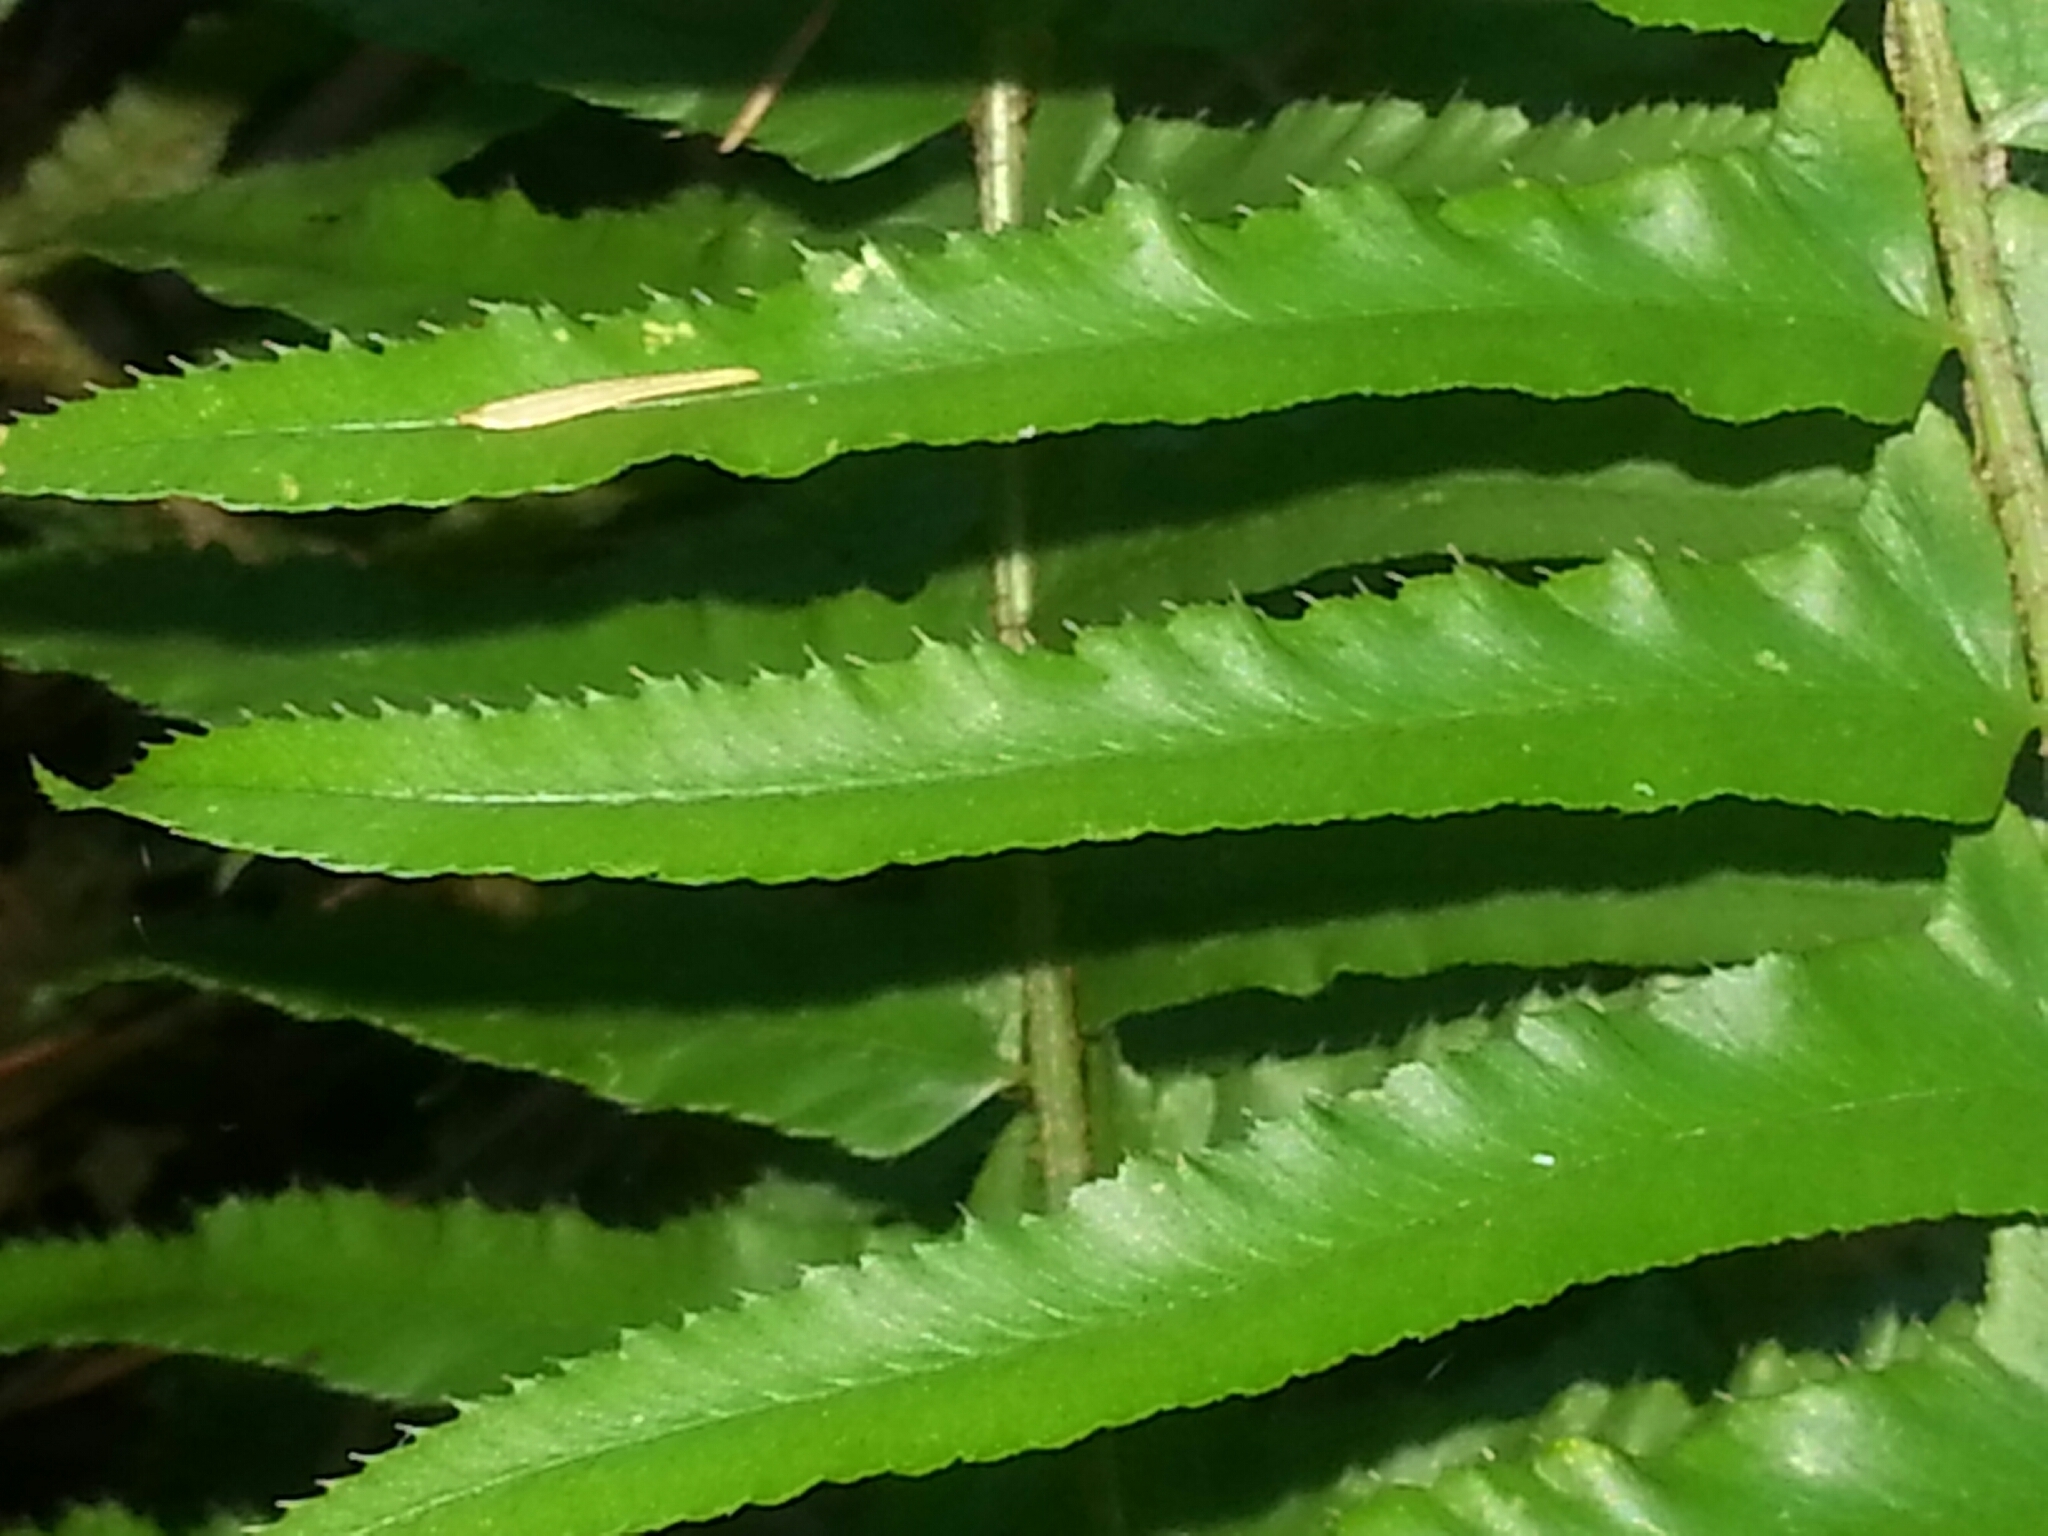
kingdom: Plantae
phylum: Tracheophyta
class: Polypodiopsida
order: Polypodiales
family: Dryopteridaceae
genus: Polystichum
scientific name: Polystichum munitum
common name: Western sword-fern
